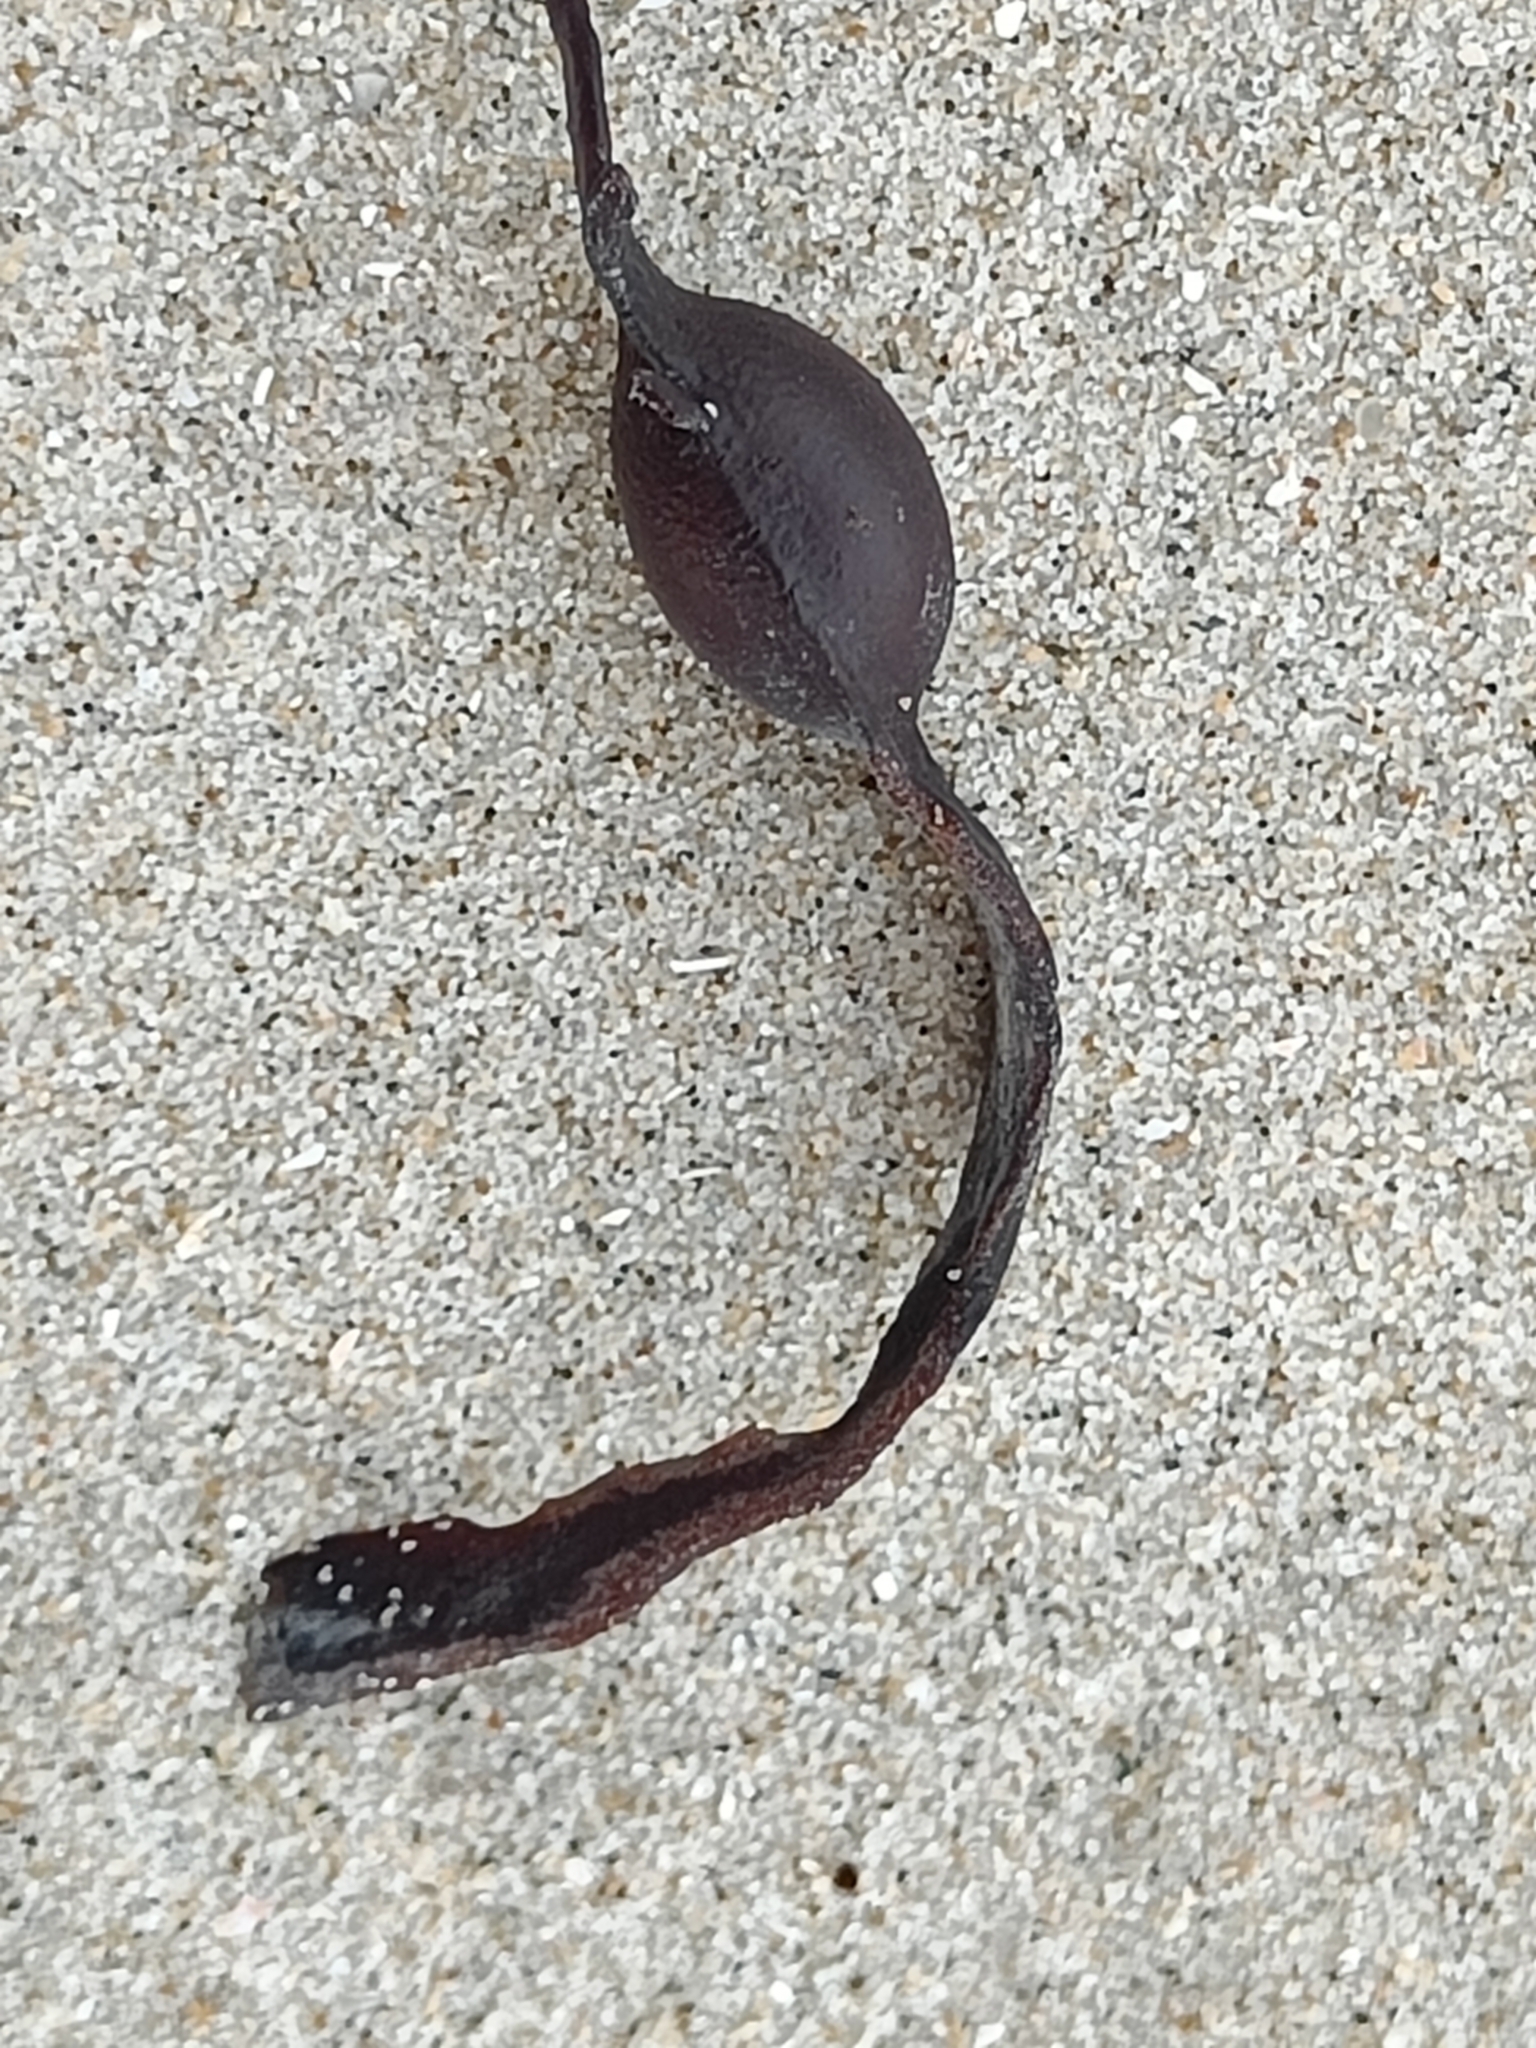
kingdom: Chromista
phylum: Ochrophyta
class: Phaeophyceae
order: Fucales
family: Fucaceae
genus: Ascophyllum
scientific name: Ascophyllum nodosum
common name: Knotted wrack
